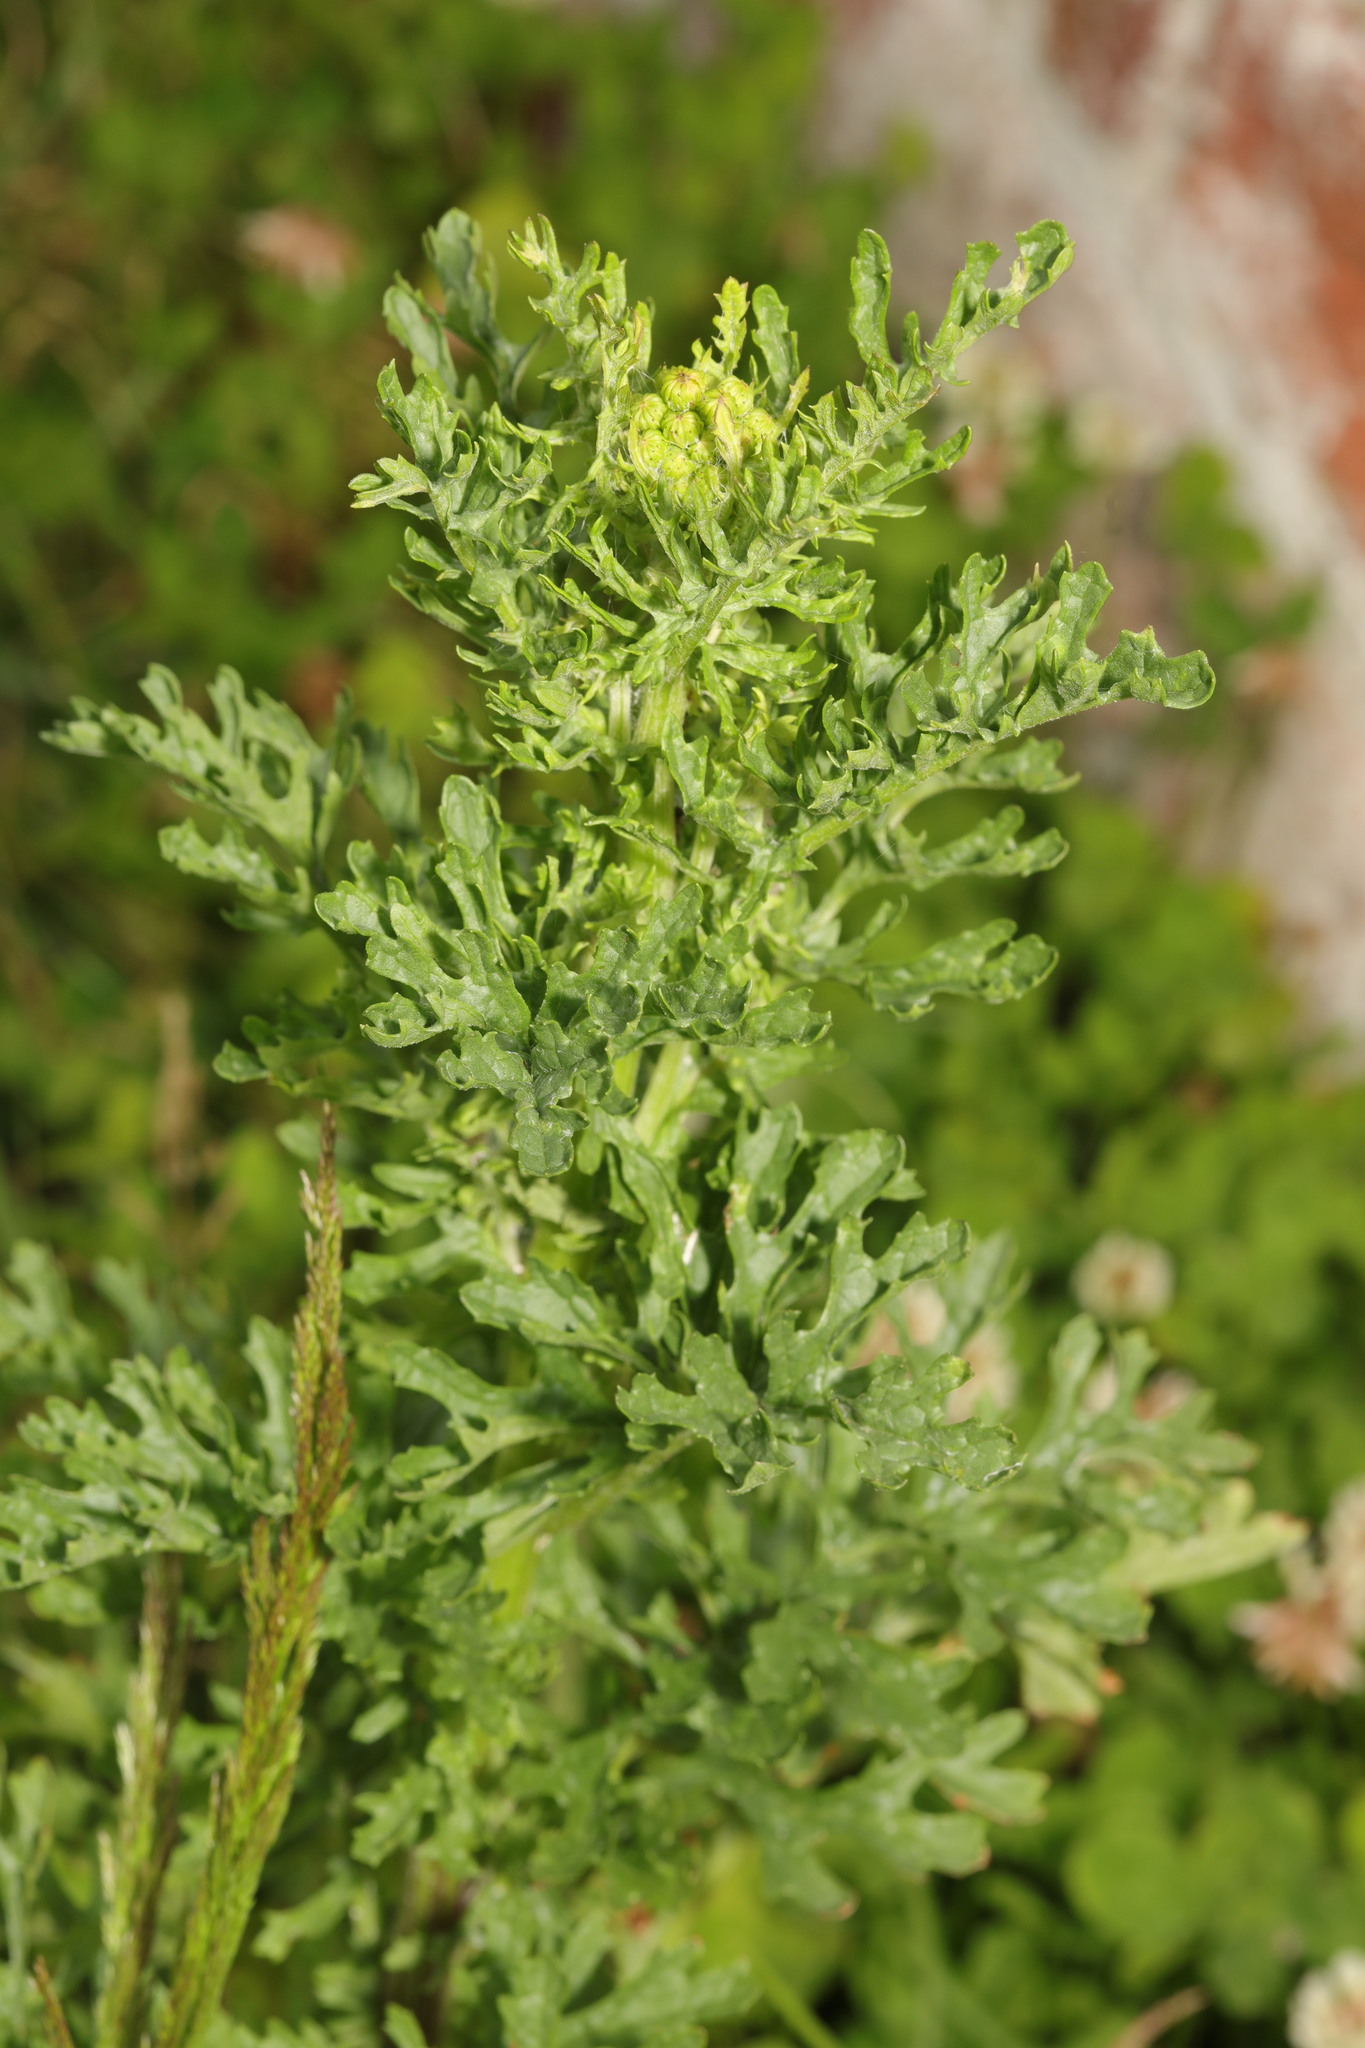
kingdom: Plantae
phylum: Tracheophyta
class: Magnoliopsida
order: Asterales
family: Asteraceae
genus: Jacobaea
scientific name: Jacobaea vulgaris
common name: Stinking willie
